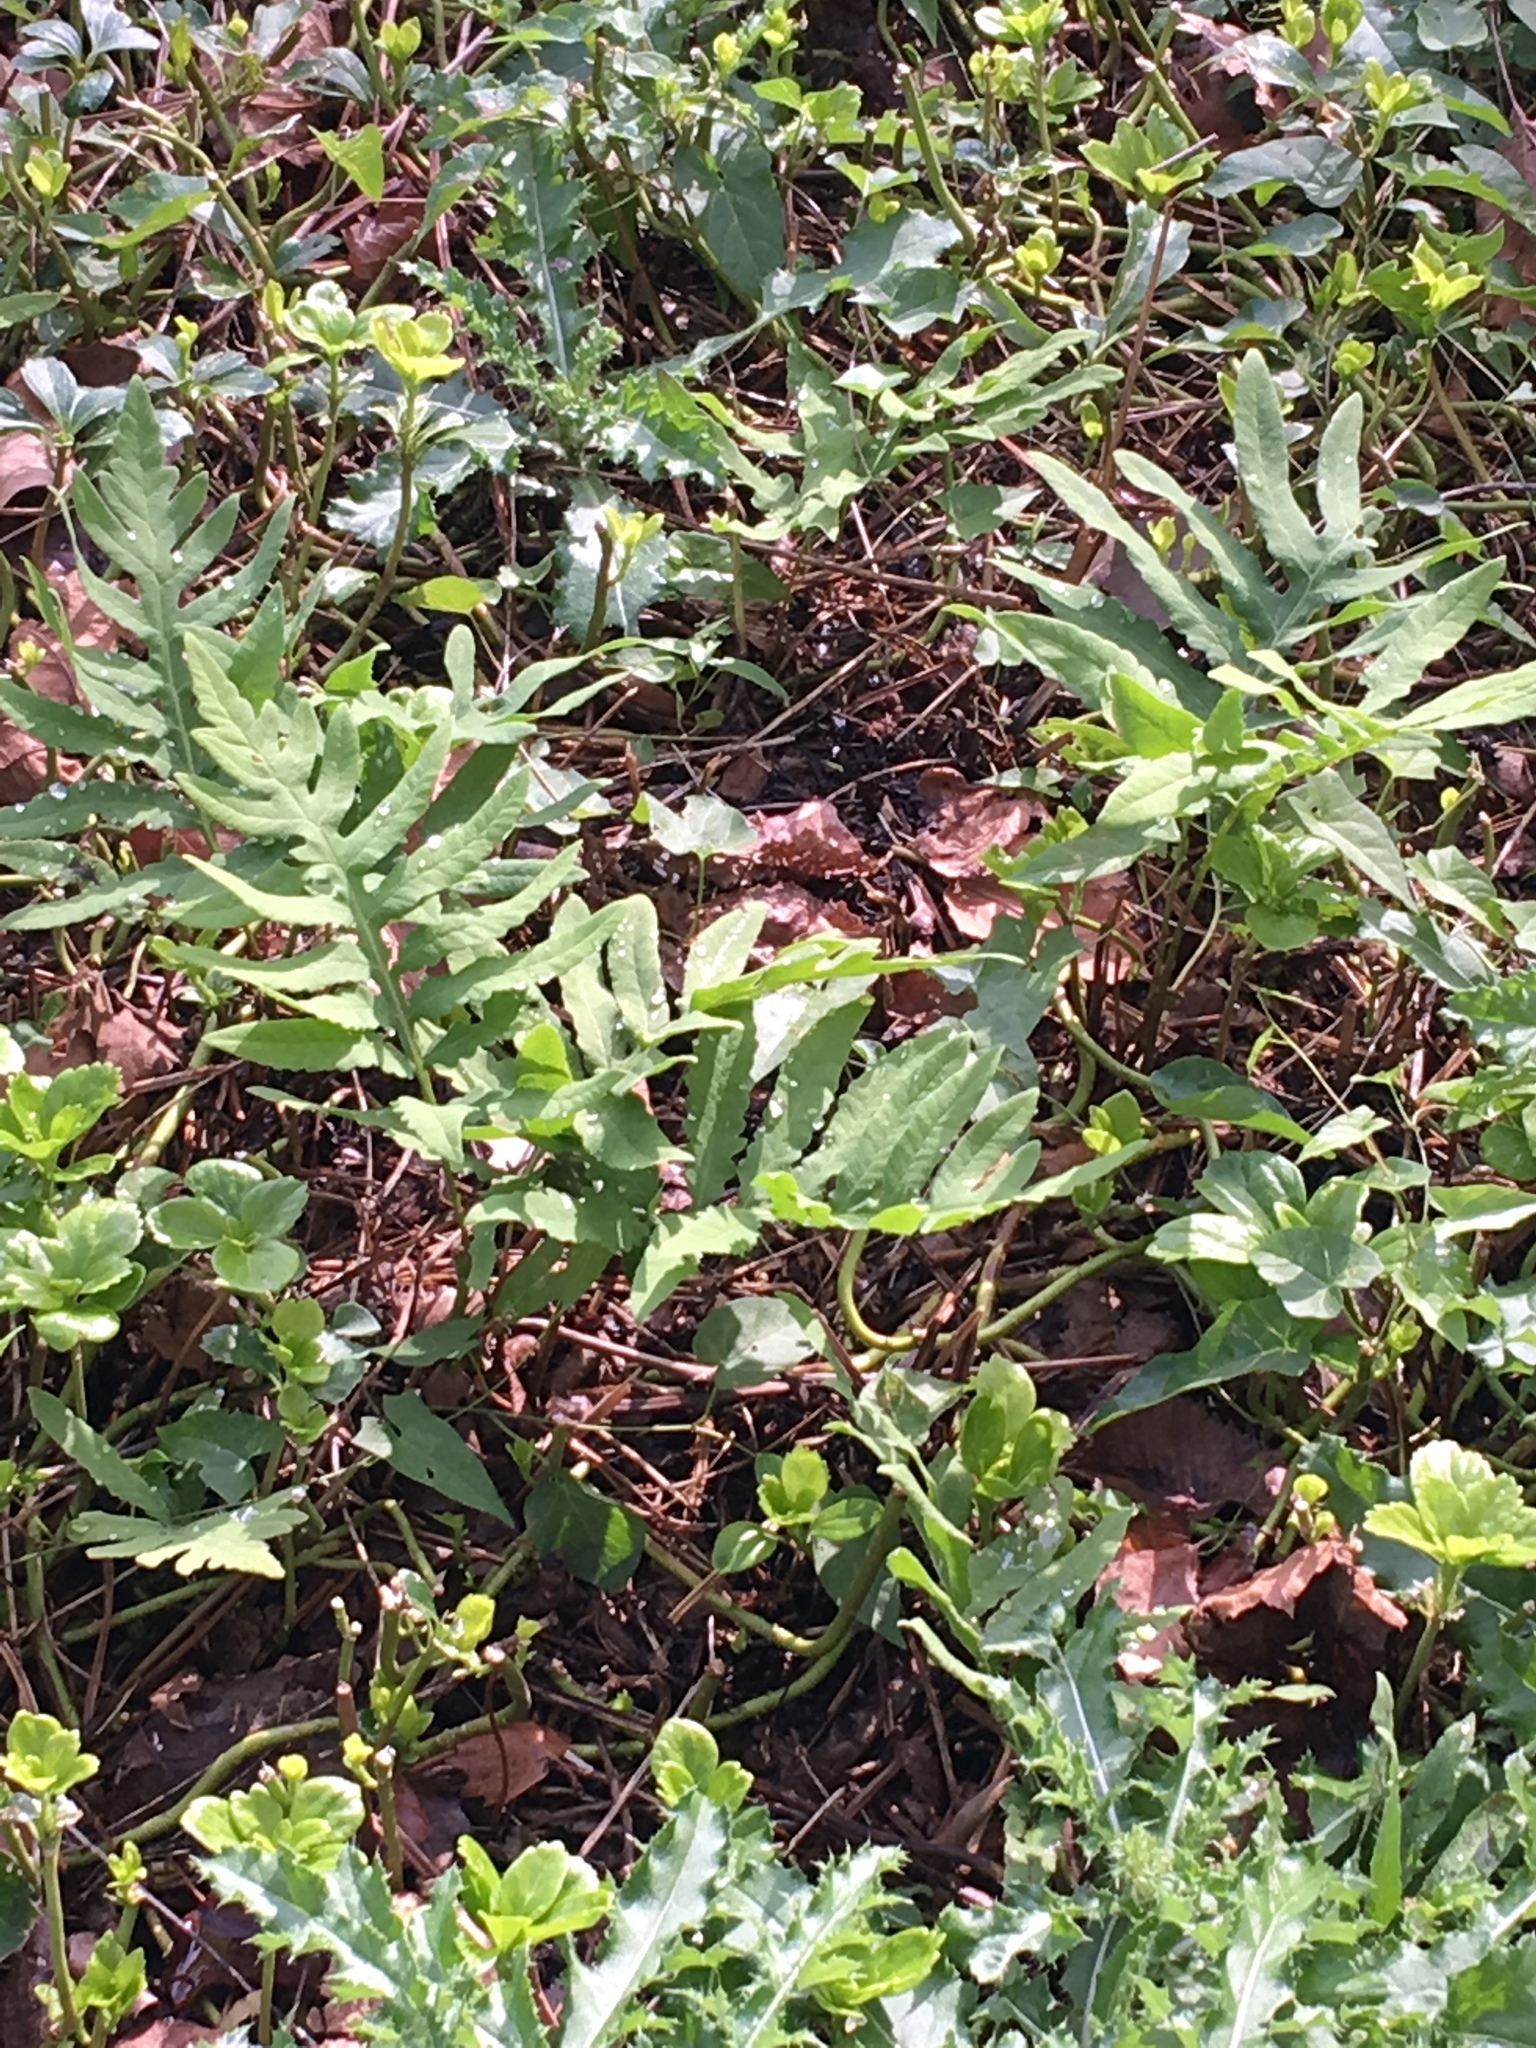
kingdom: Plantae
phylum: Tracheophyta
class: Polypodiopsida
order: Polypodiales
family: Onocleaceae
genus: Onoclea
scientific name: Onoclea sensibilis
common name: Sensitive fern
